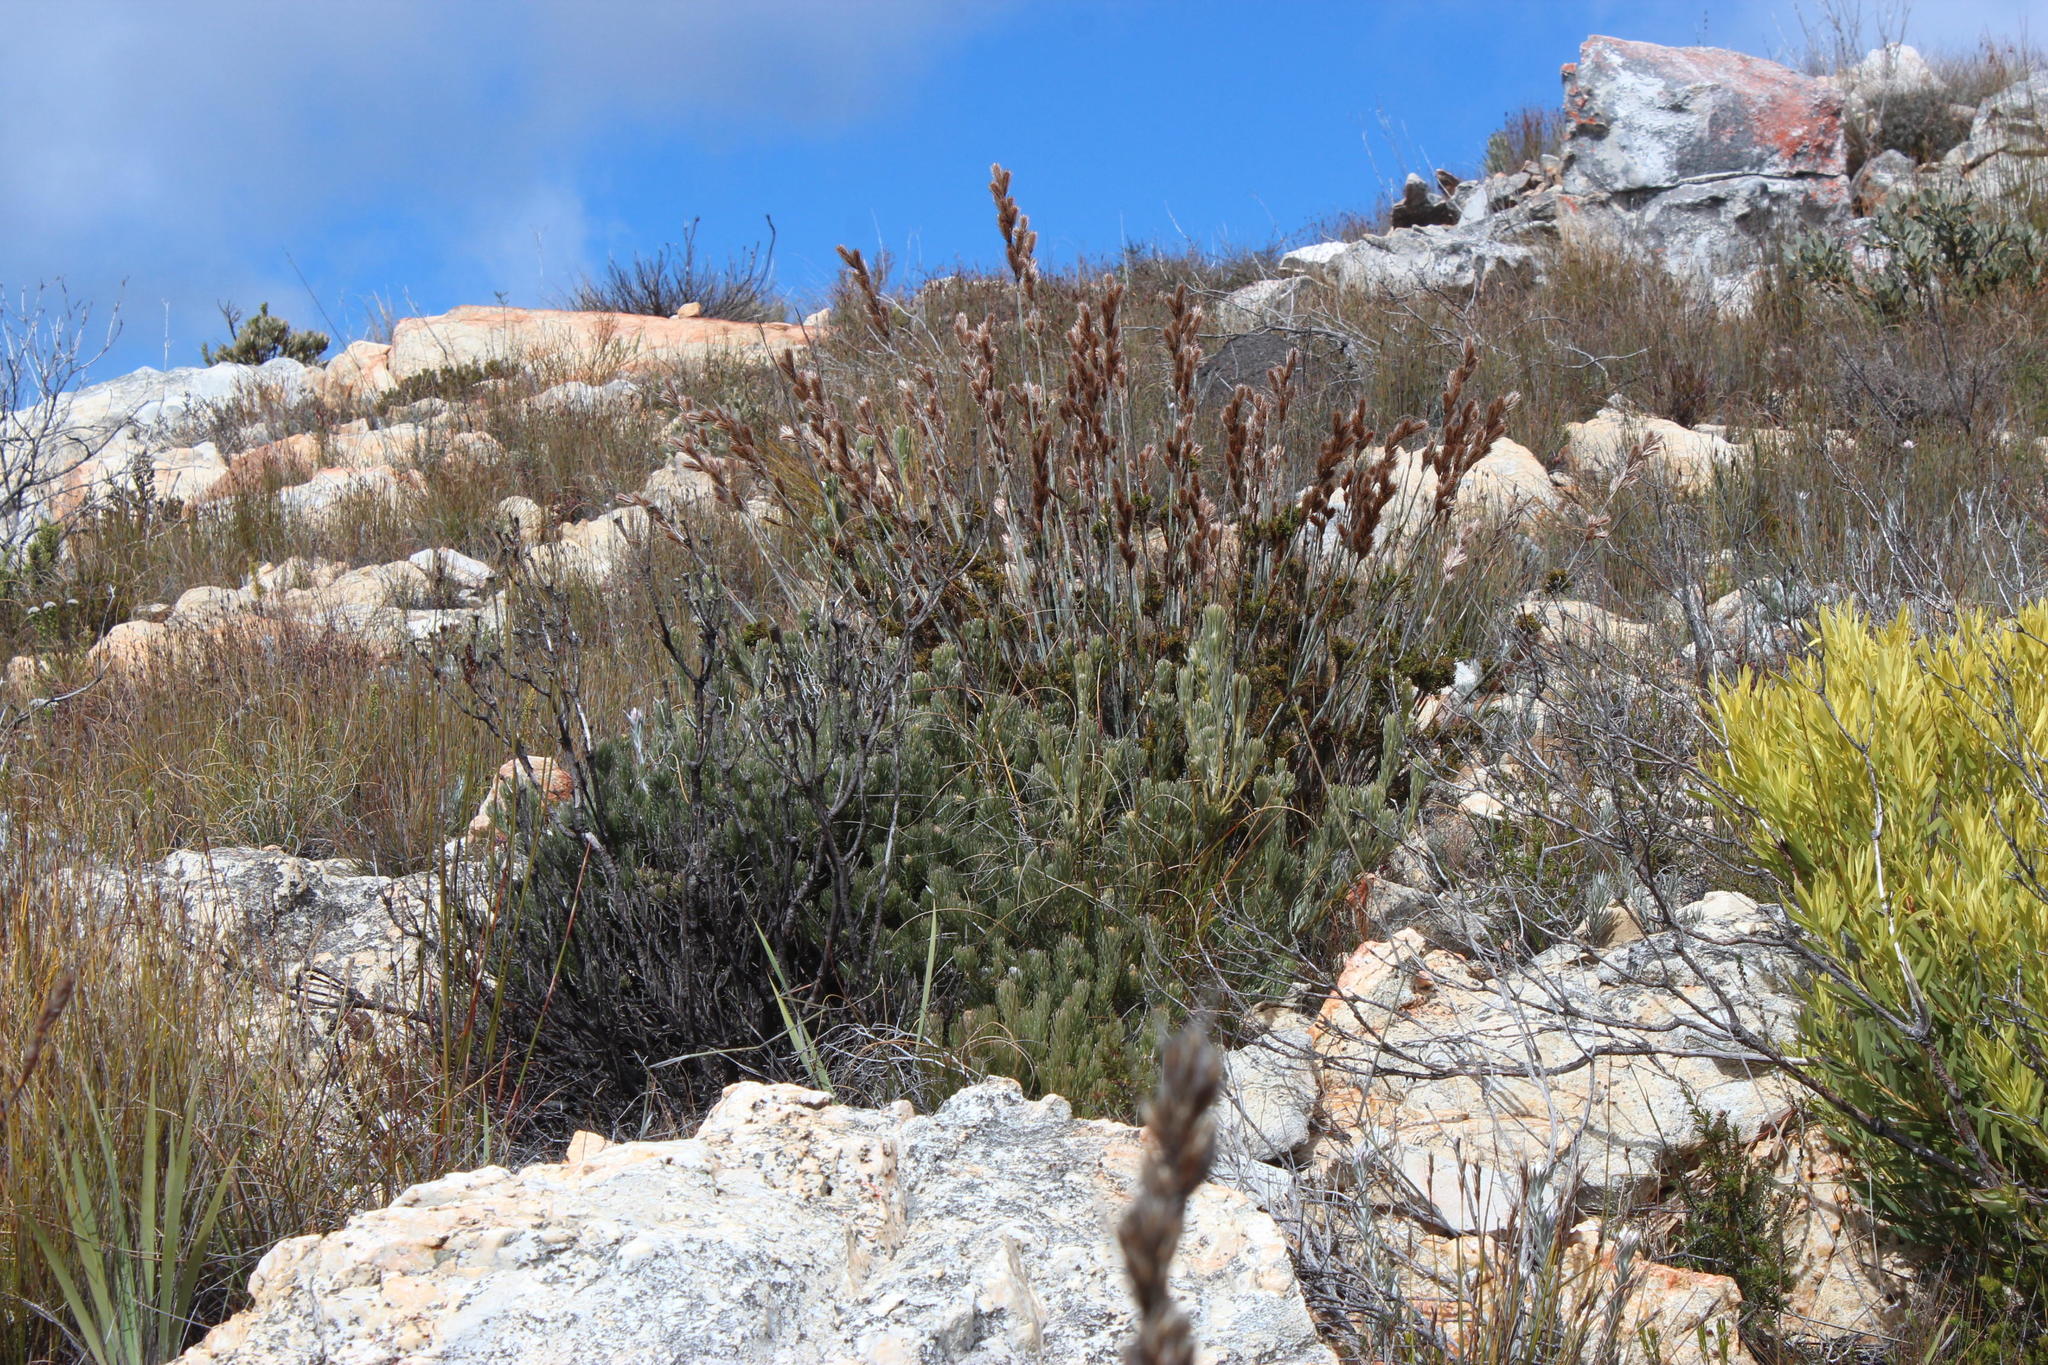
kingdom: Plantae
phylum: Tracheophyta
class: Magnoliopsida
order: Proteales
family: Proteaceae
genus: Leucadendron
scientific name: Leucadendron dregei
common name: Summit conebush
